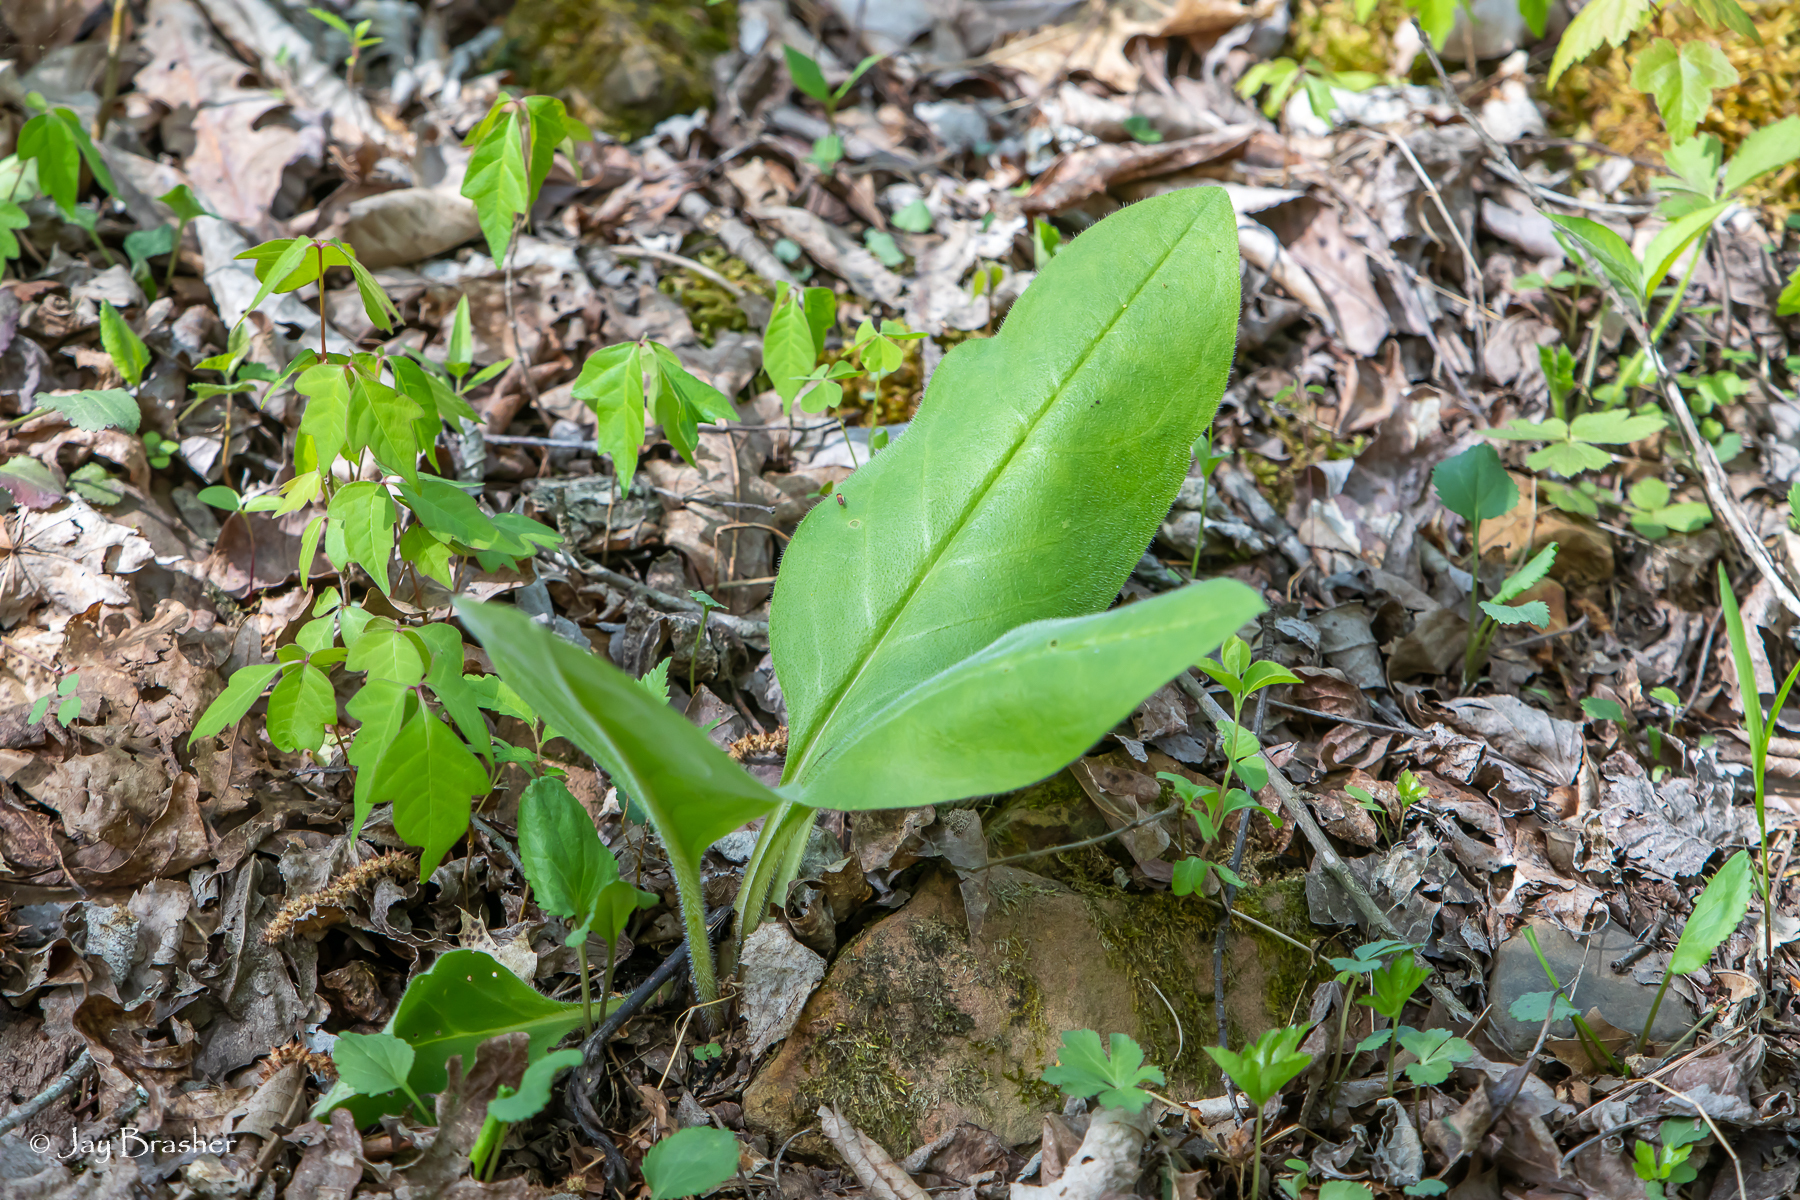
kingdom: Plantae
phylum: Tracheophyta
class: Magnoliopsida
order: Boraginales
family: Boraginaceae
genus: Andersonglossum
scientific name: Andersonglossum virginianum
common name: Wild comfrey
